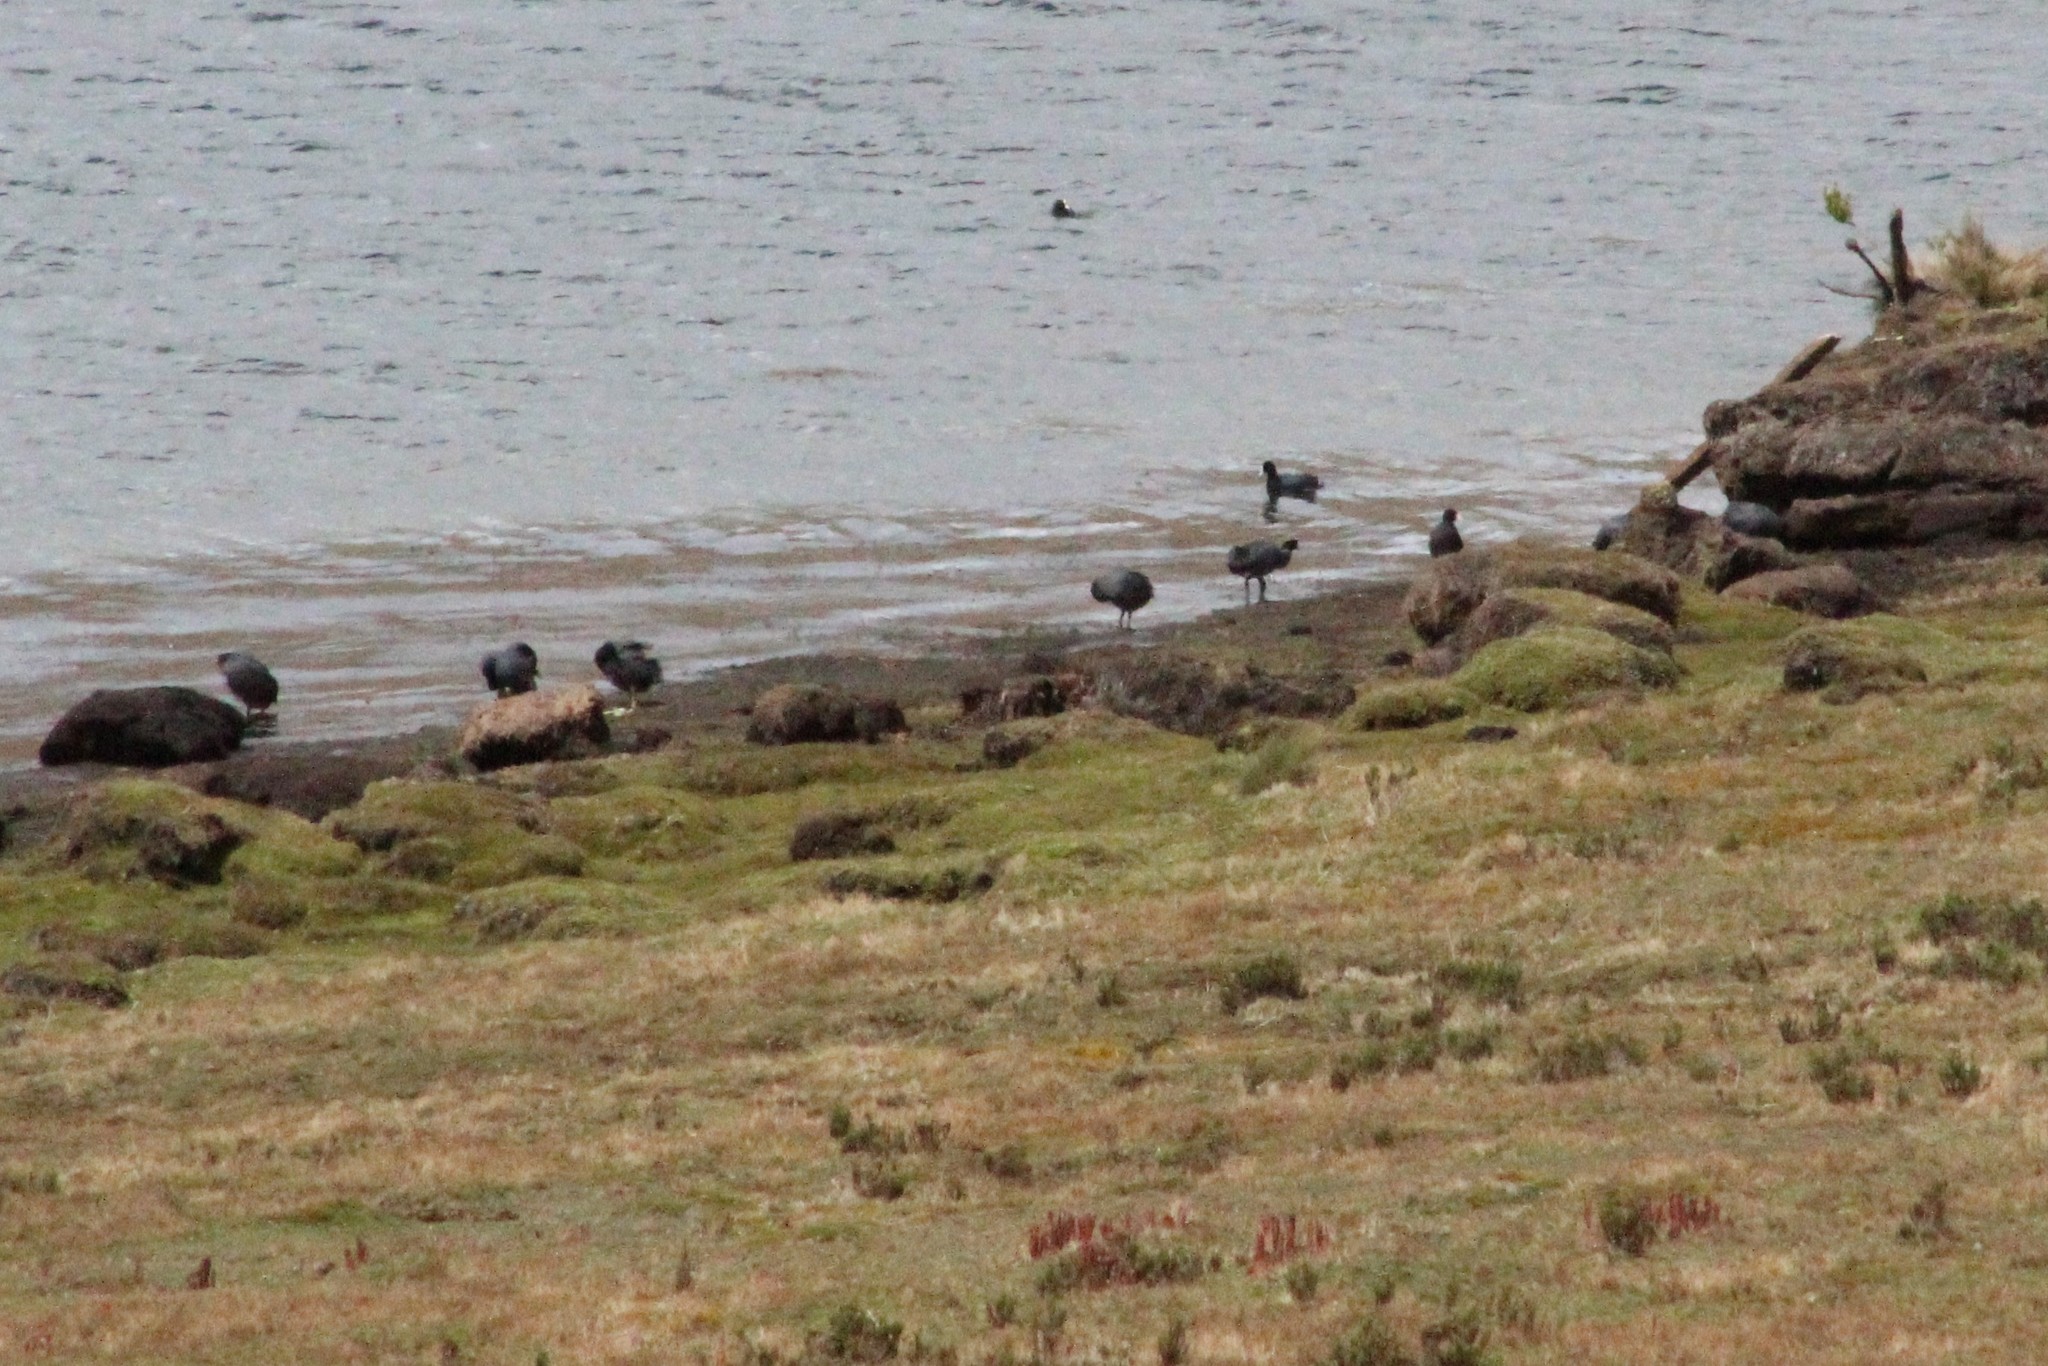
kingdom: Animalia
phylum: Chordata
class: Aves
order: Gruiformes
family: Rallidae
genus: Fulica
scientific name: Fulica ardesiaca
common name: Andean coot
